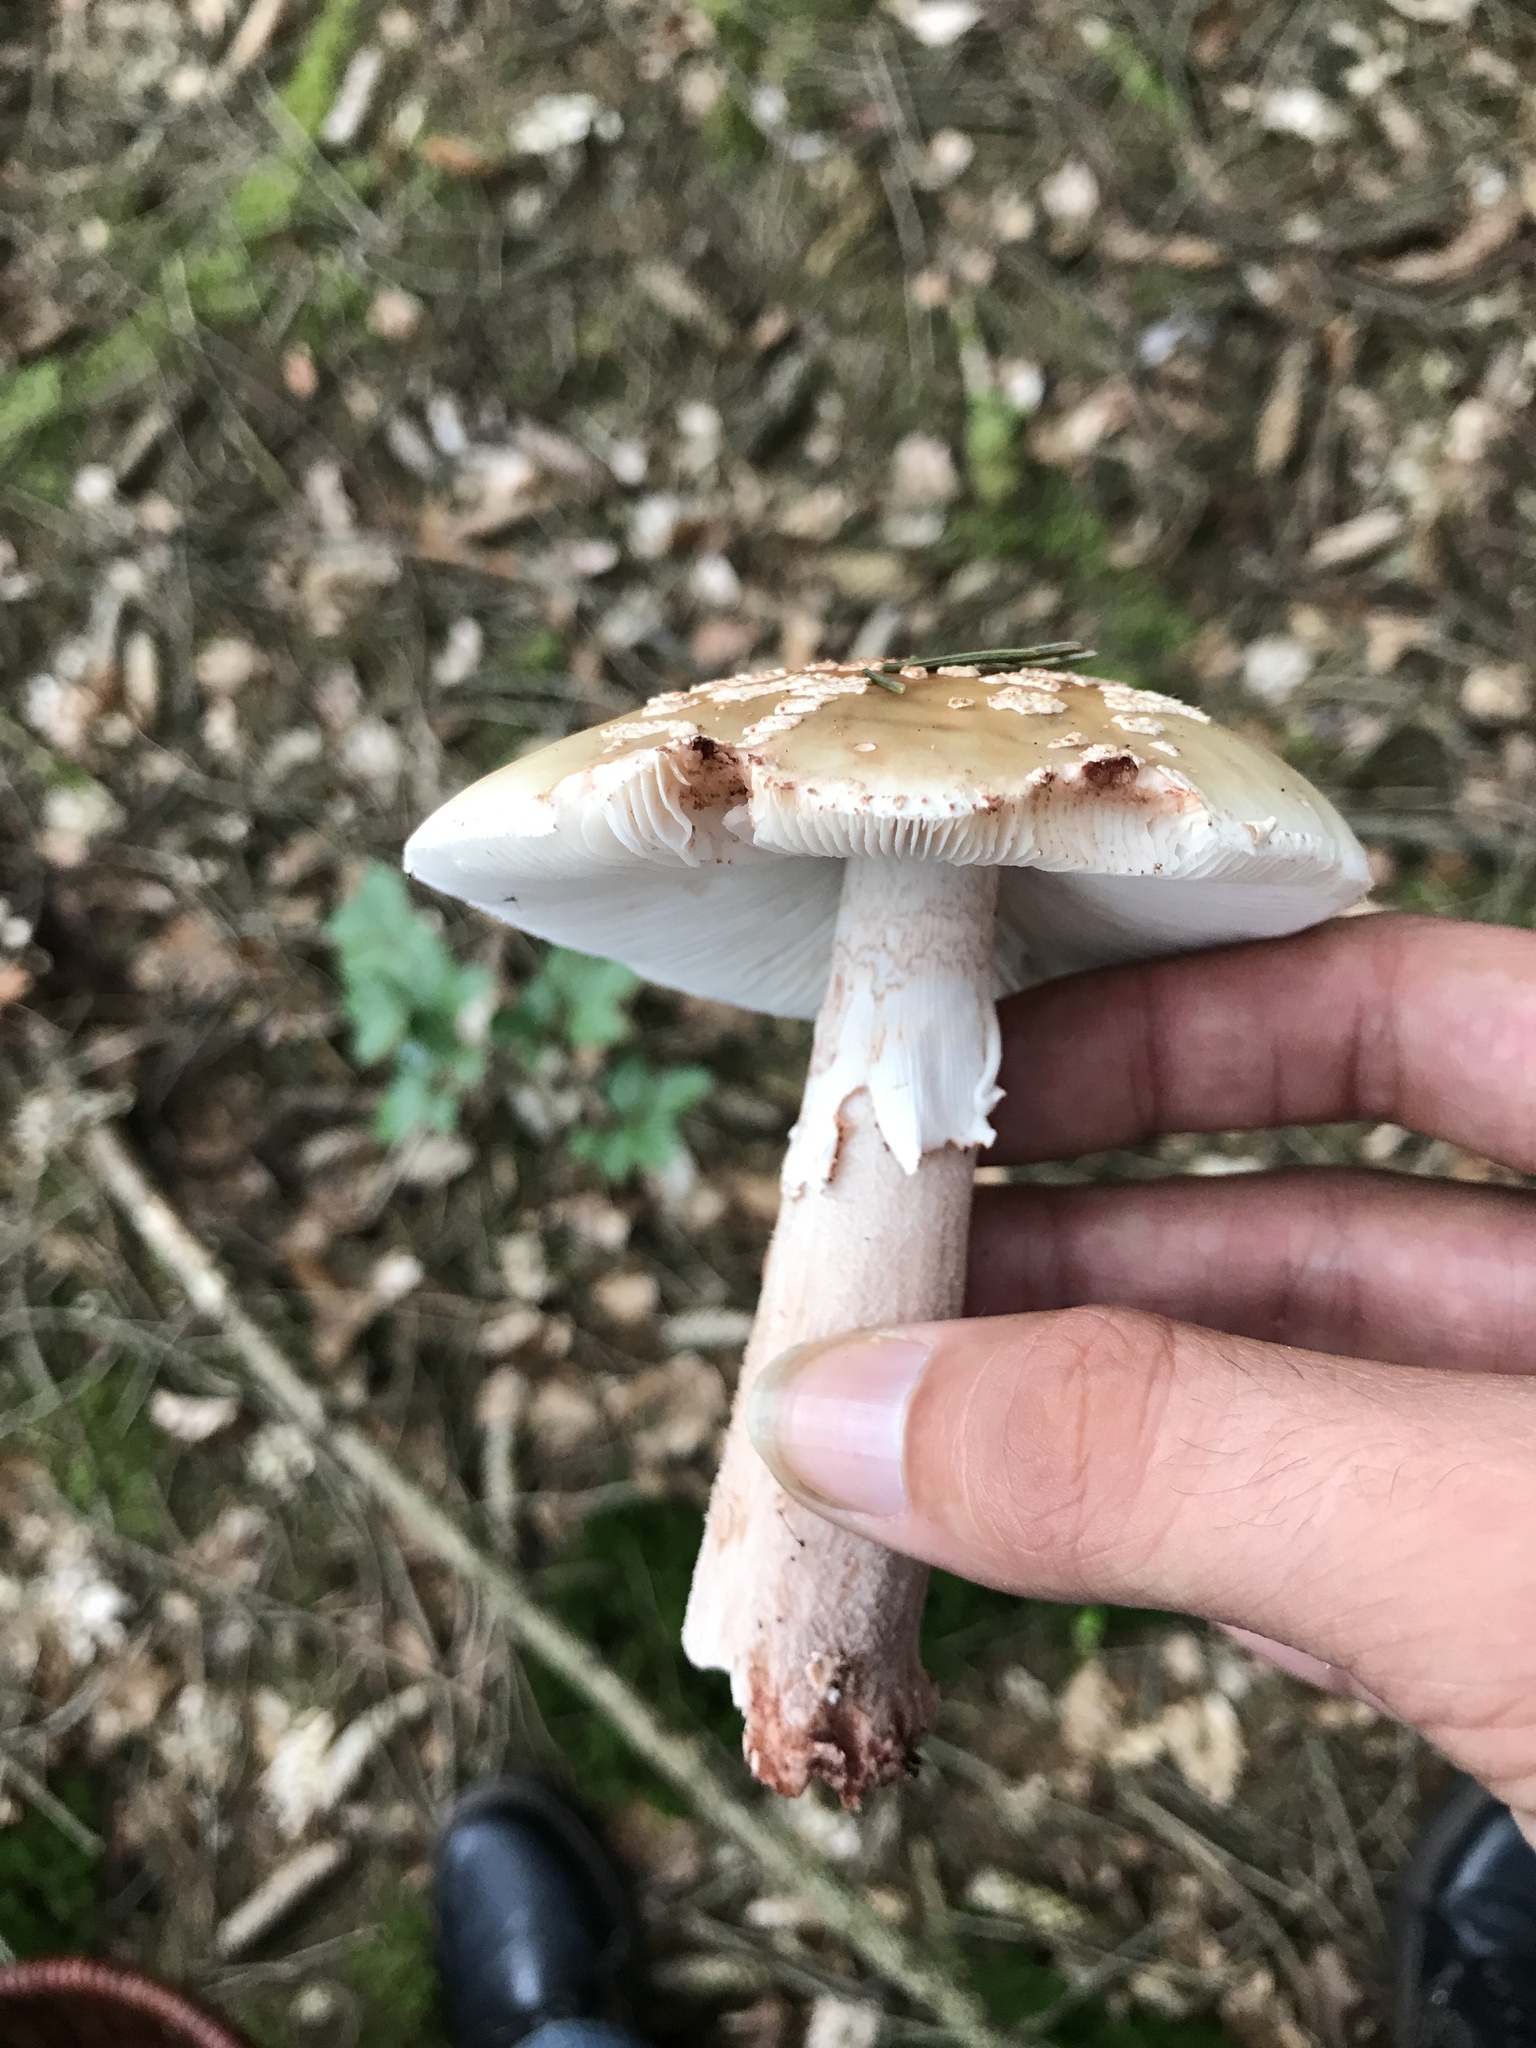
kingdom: Fungi
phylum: Basidiomycota
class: Agaricomycetes
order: Agaricales
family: Amanitaceae
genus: Amanita
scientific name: Amanita rubescens
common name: Blusher
